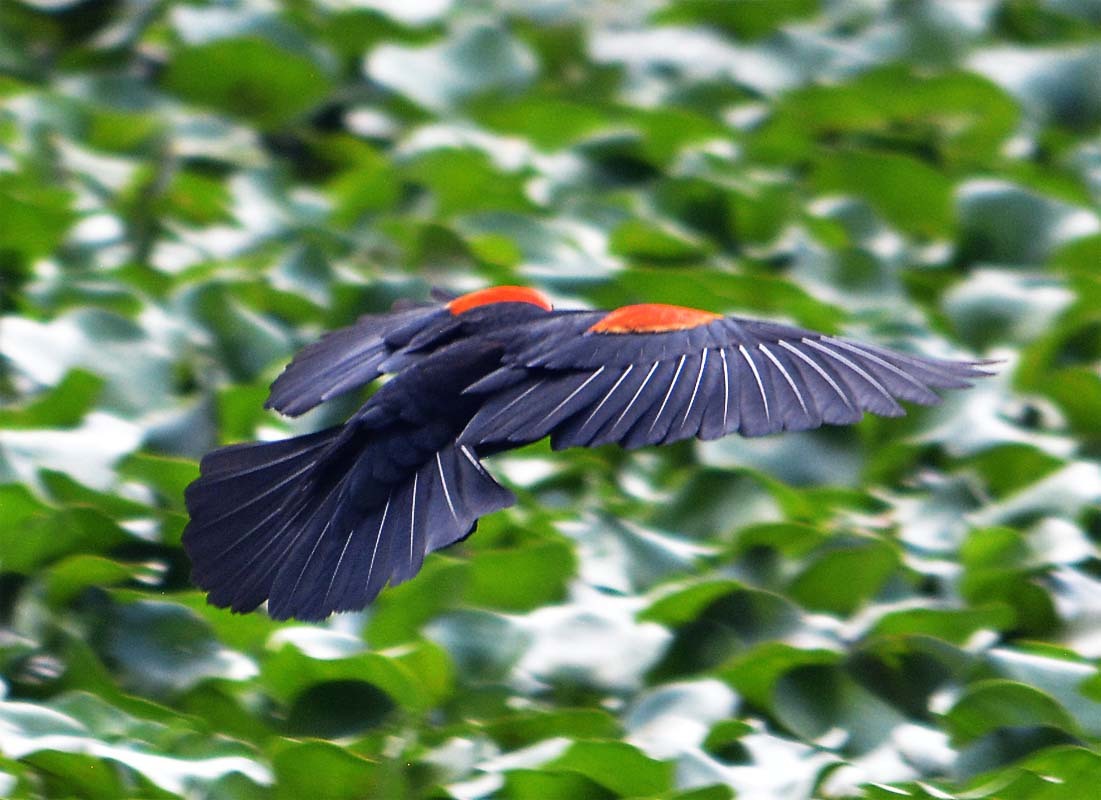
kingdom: Animalia
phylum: Chordata
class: Aves
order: Passeriformes
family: Icteridae
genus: Agelaius
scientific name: Agelaius phoeniceus
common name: Red-winged blackbird
